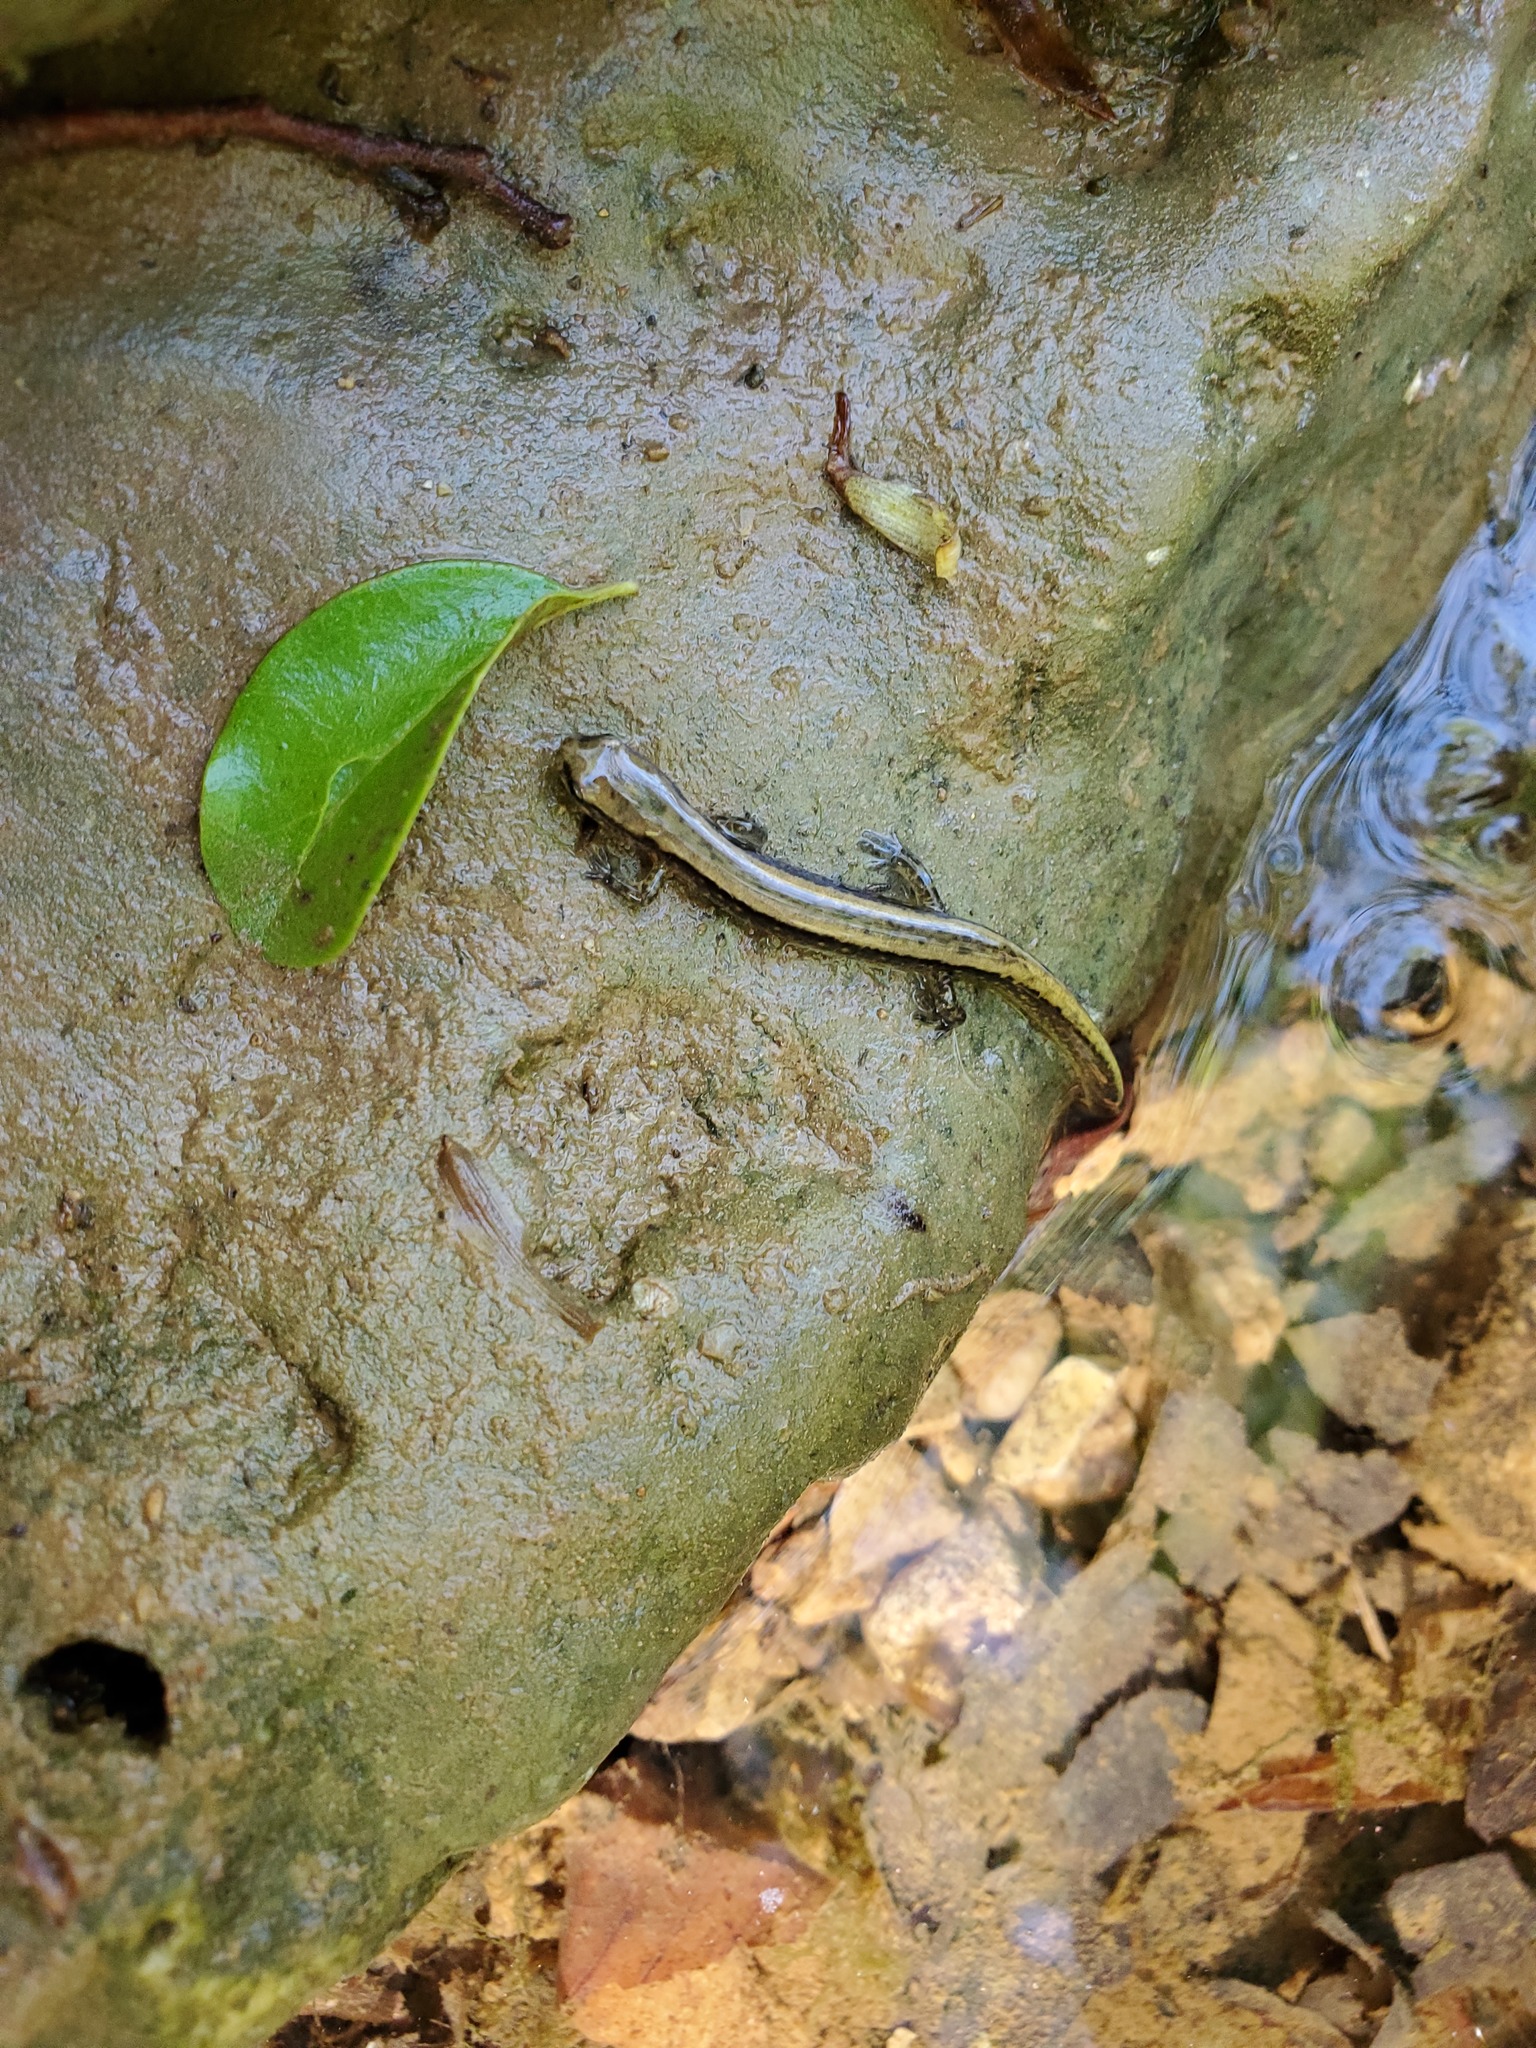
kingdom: Animalia
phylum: Chordata
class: Amphibia
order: Caudata
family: Plethodontidae
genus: Eurycea
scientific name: Eurycea cirrigera
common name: Southern two-lined salamander
